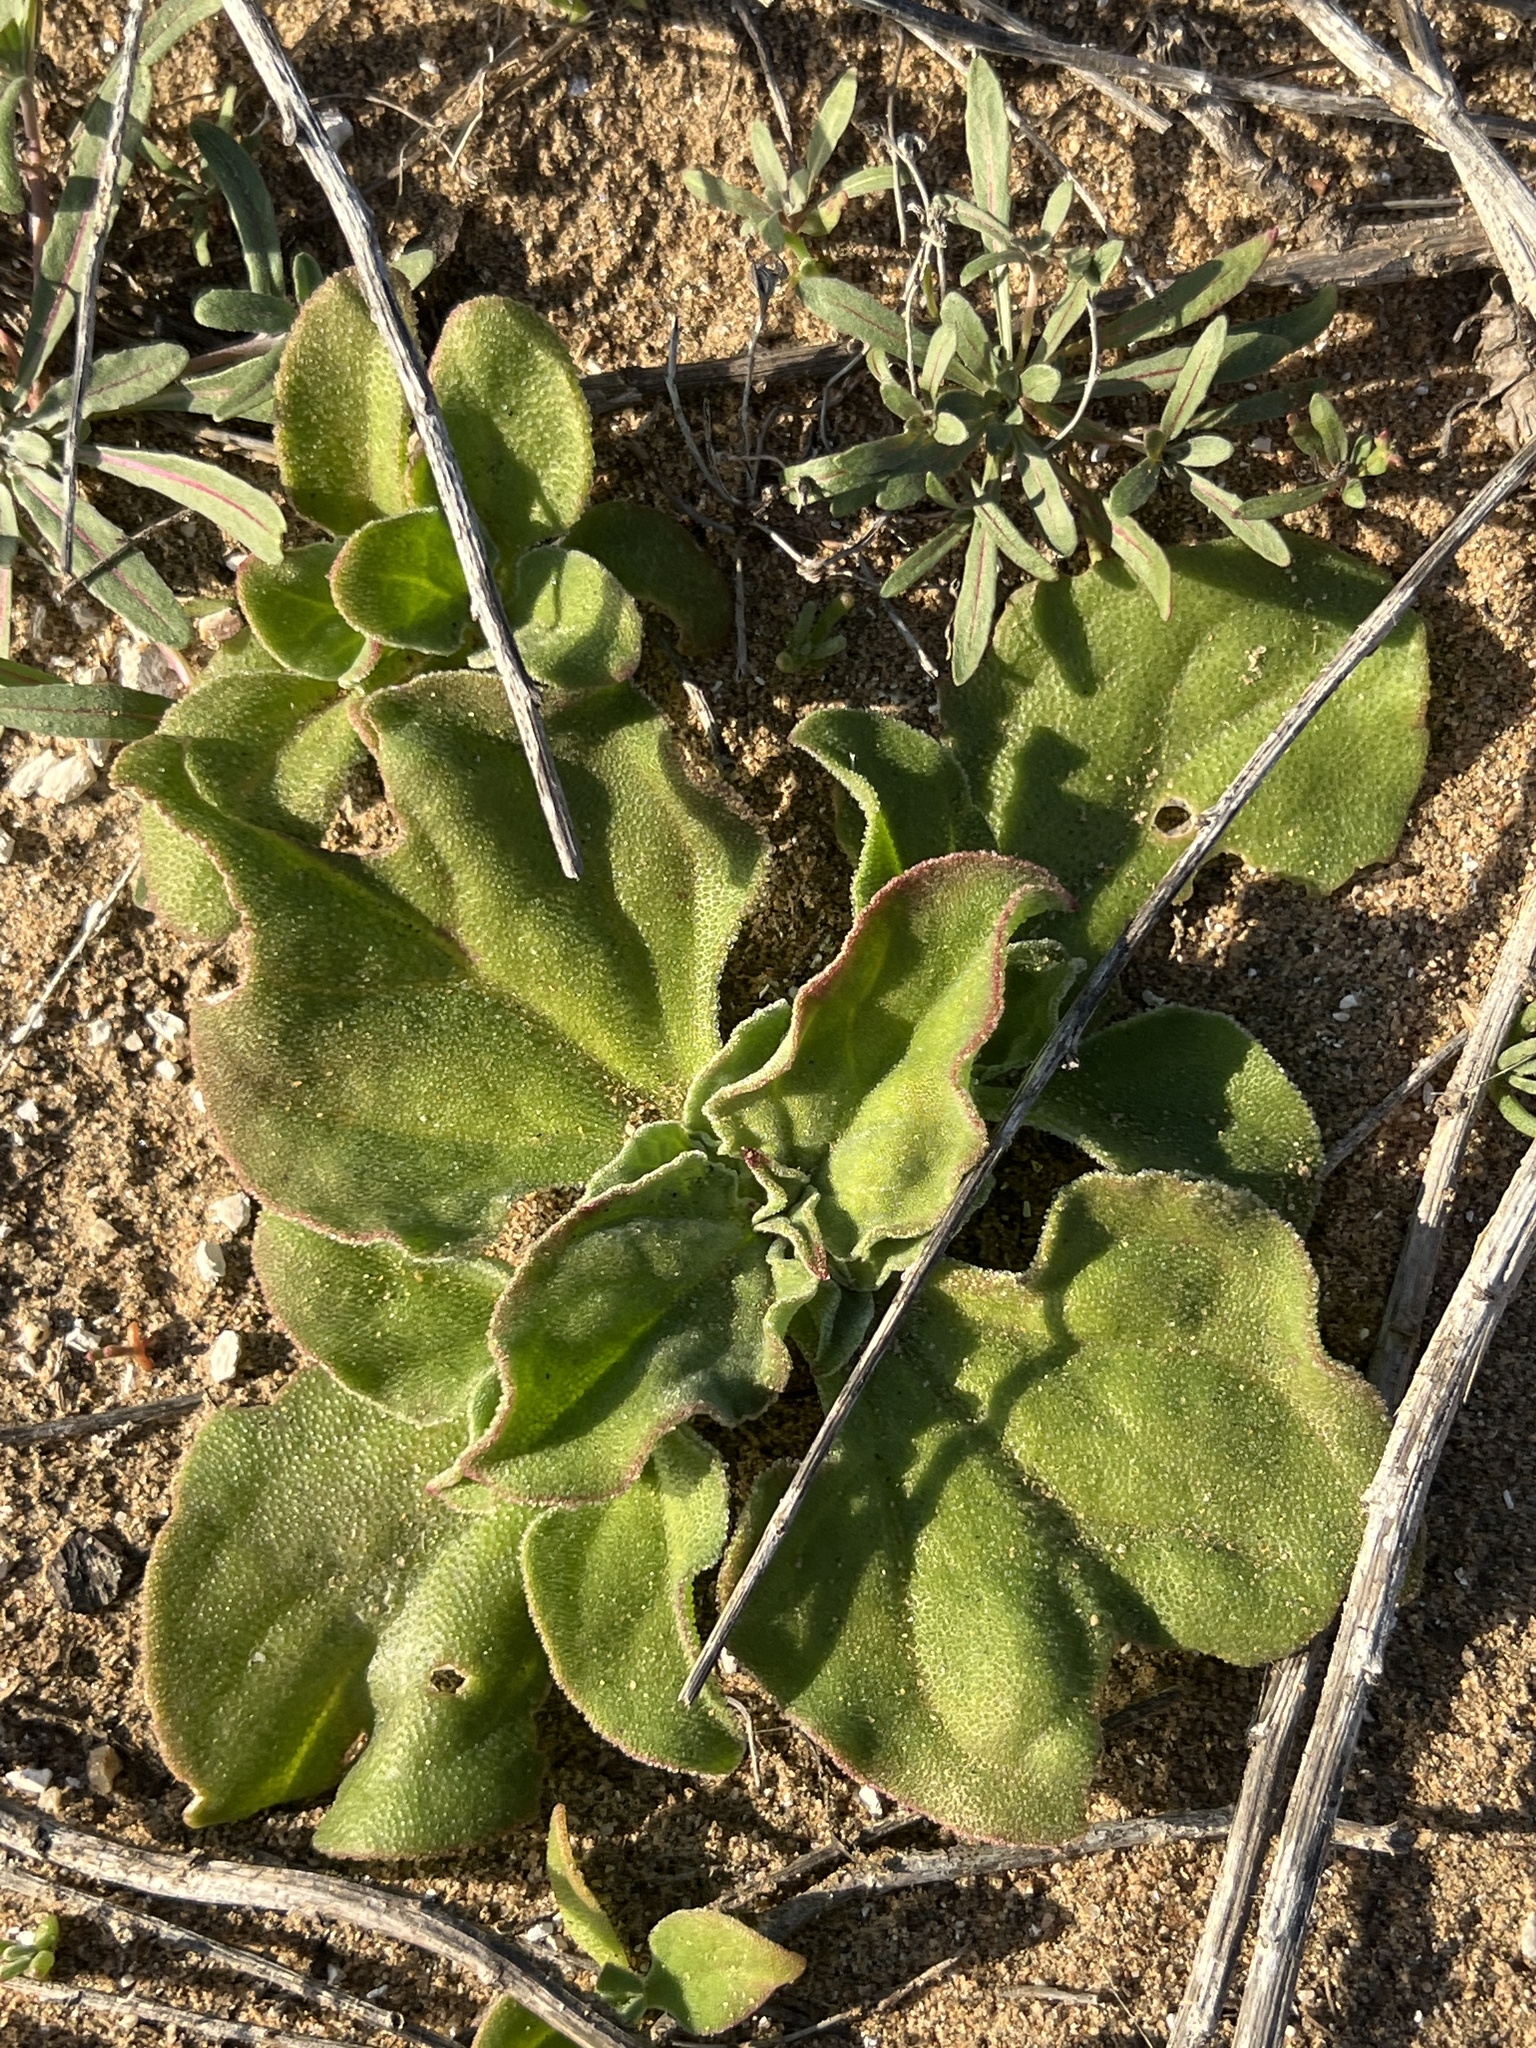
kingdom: Plantae
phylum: Tracheophyta
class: Magnoliopsida
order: Caryophyllales
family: Aizoaceae
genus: Mesembryanthemum
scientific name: Mesembryanthemum crystallinum
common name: Common iceplant
